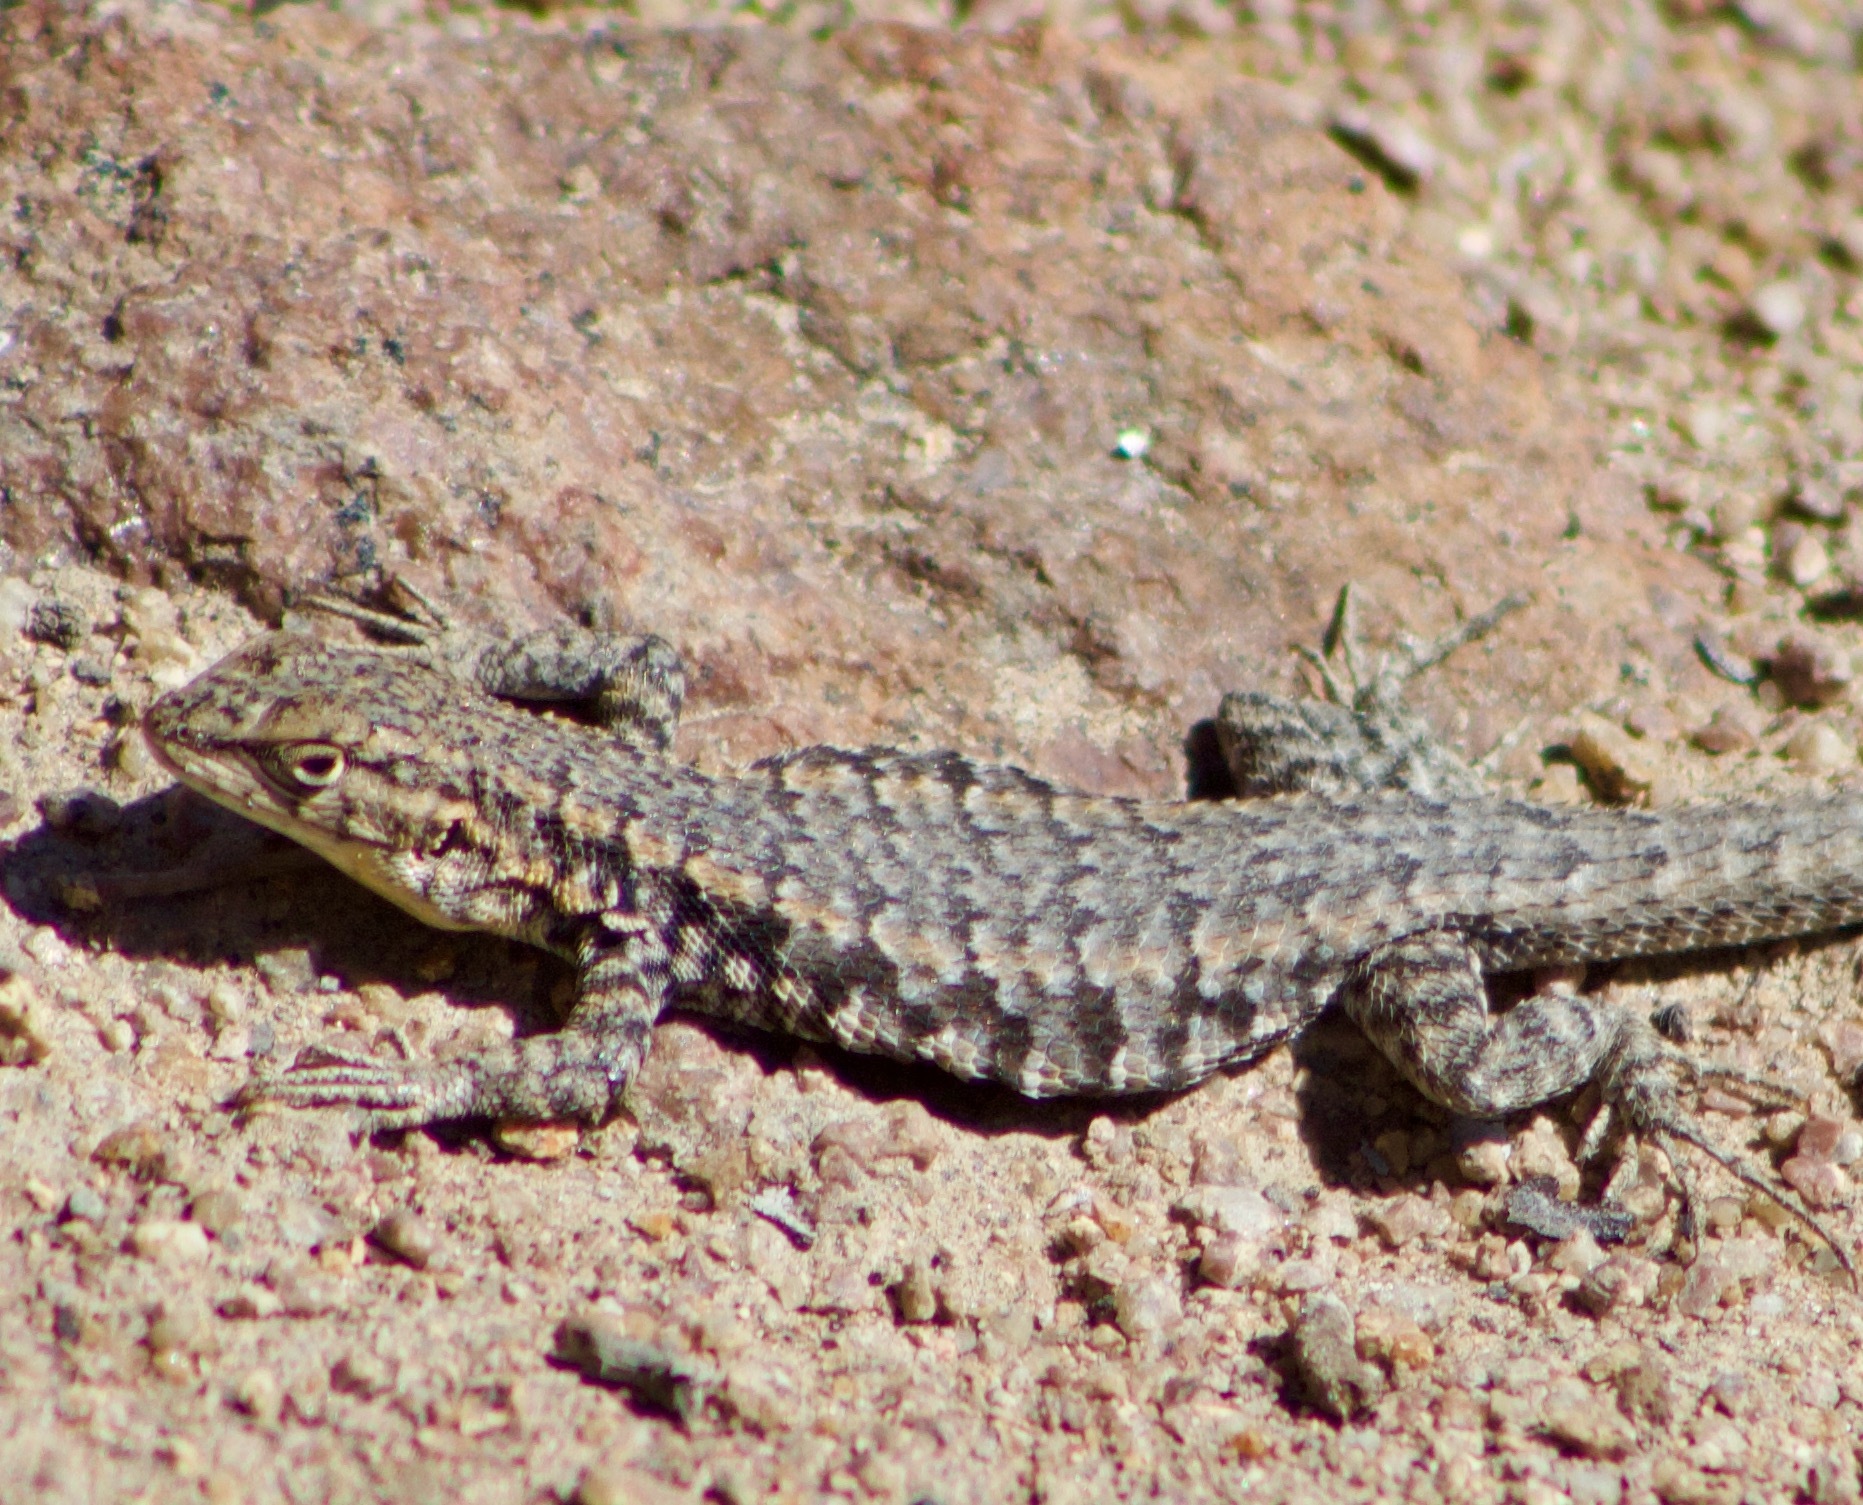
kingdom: Animalia
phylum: Chordata
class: Squamata
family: Liolaemidae
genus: Liolaemus
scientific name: Liolaemus platei
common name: Braided tree iguana
